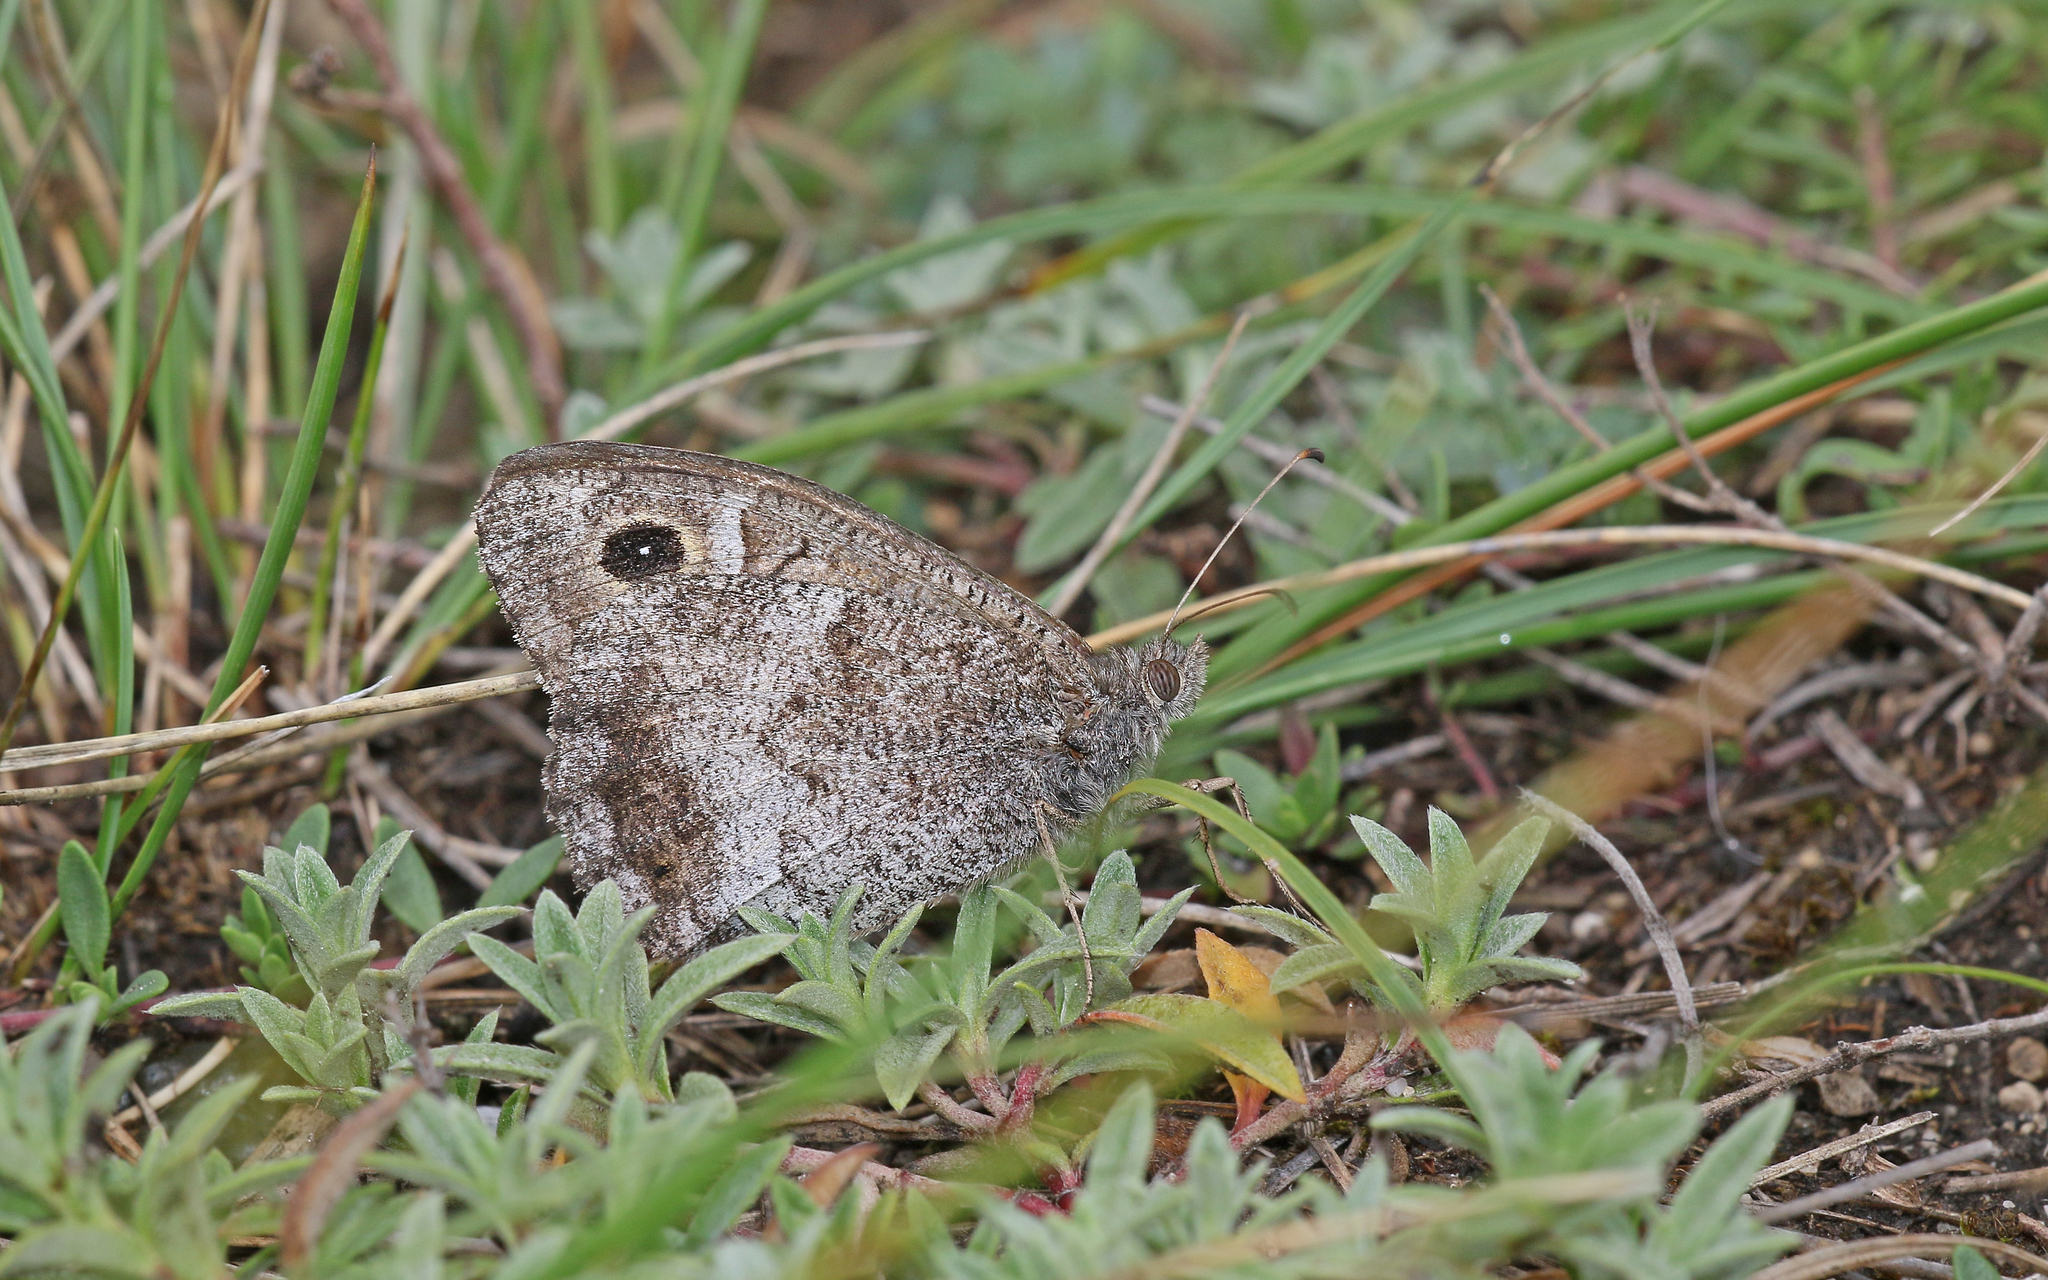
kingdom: Animalia
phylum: Arthropoda
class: Insecta
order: Lepidoptera
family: Nymphalidae
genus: Hipparchia
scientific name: Hipparchia statilinus
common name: Tree grayling
